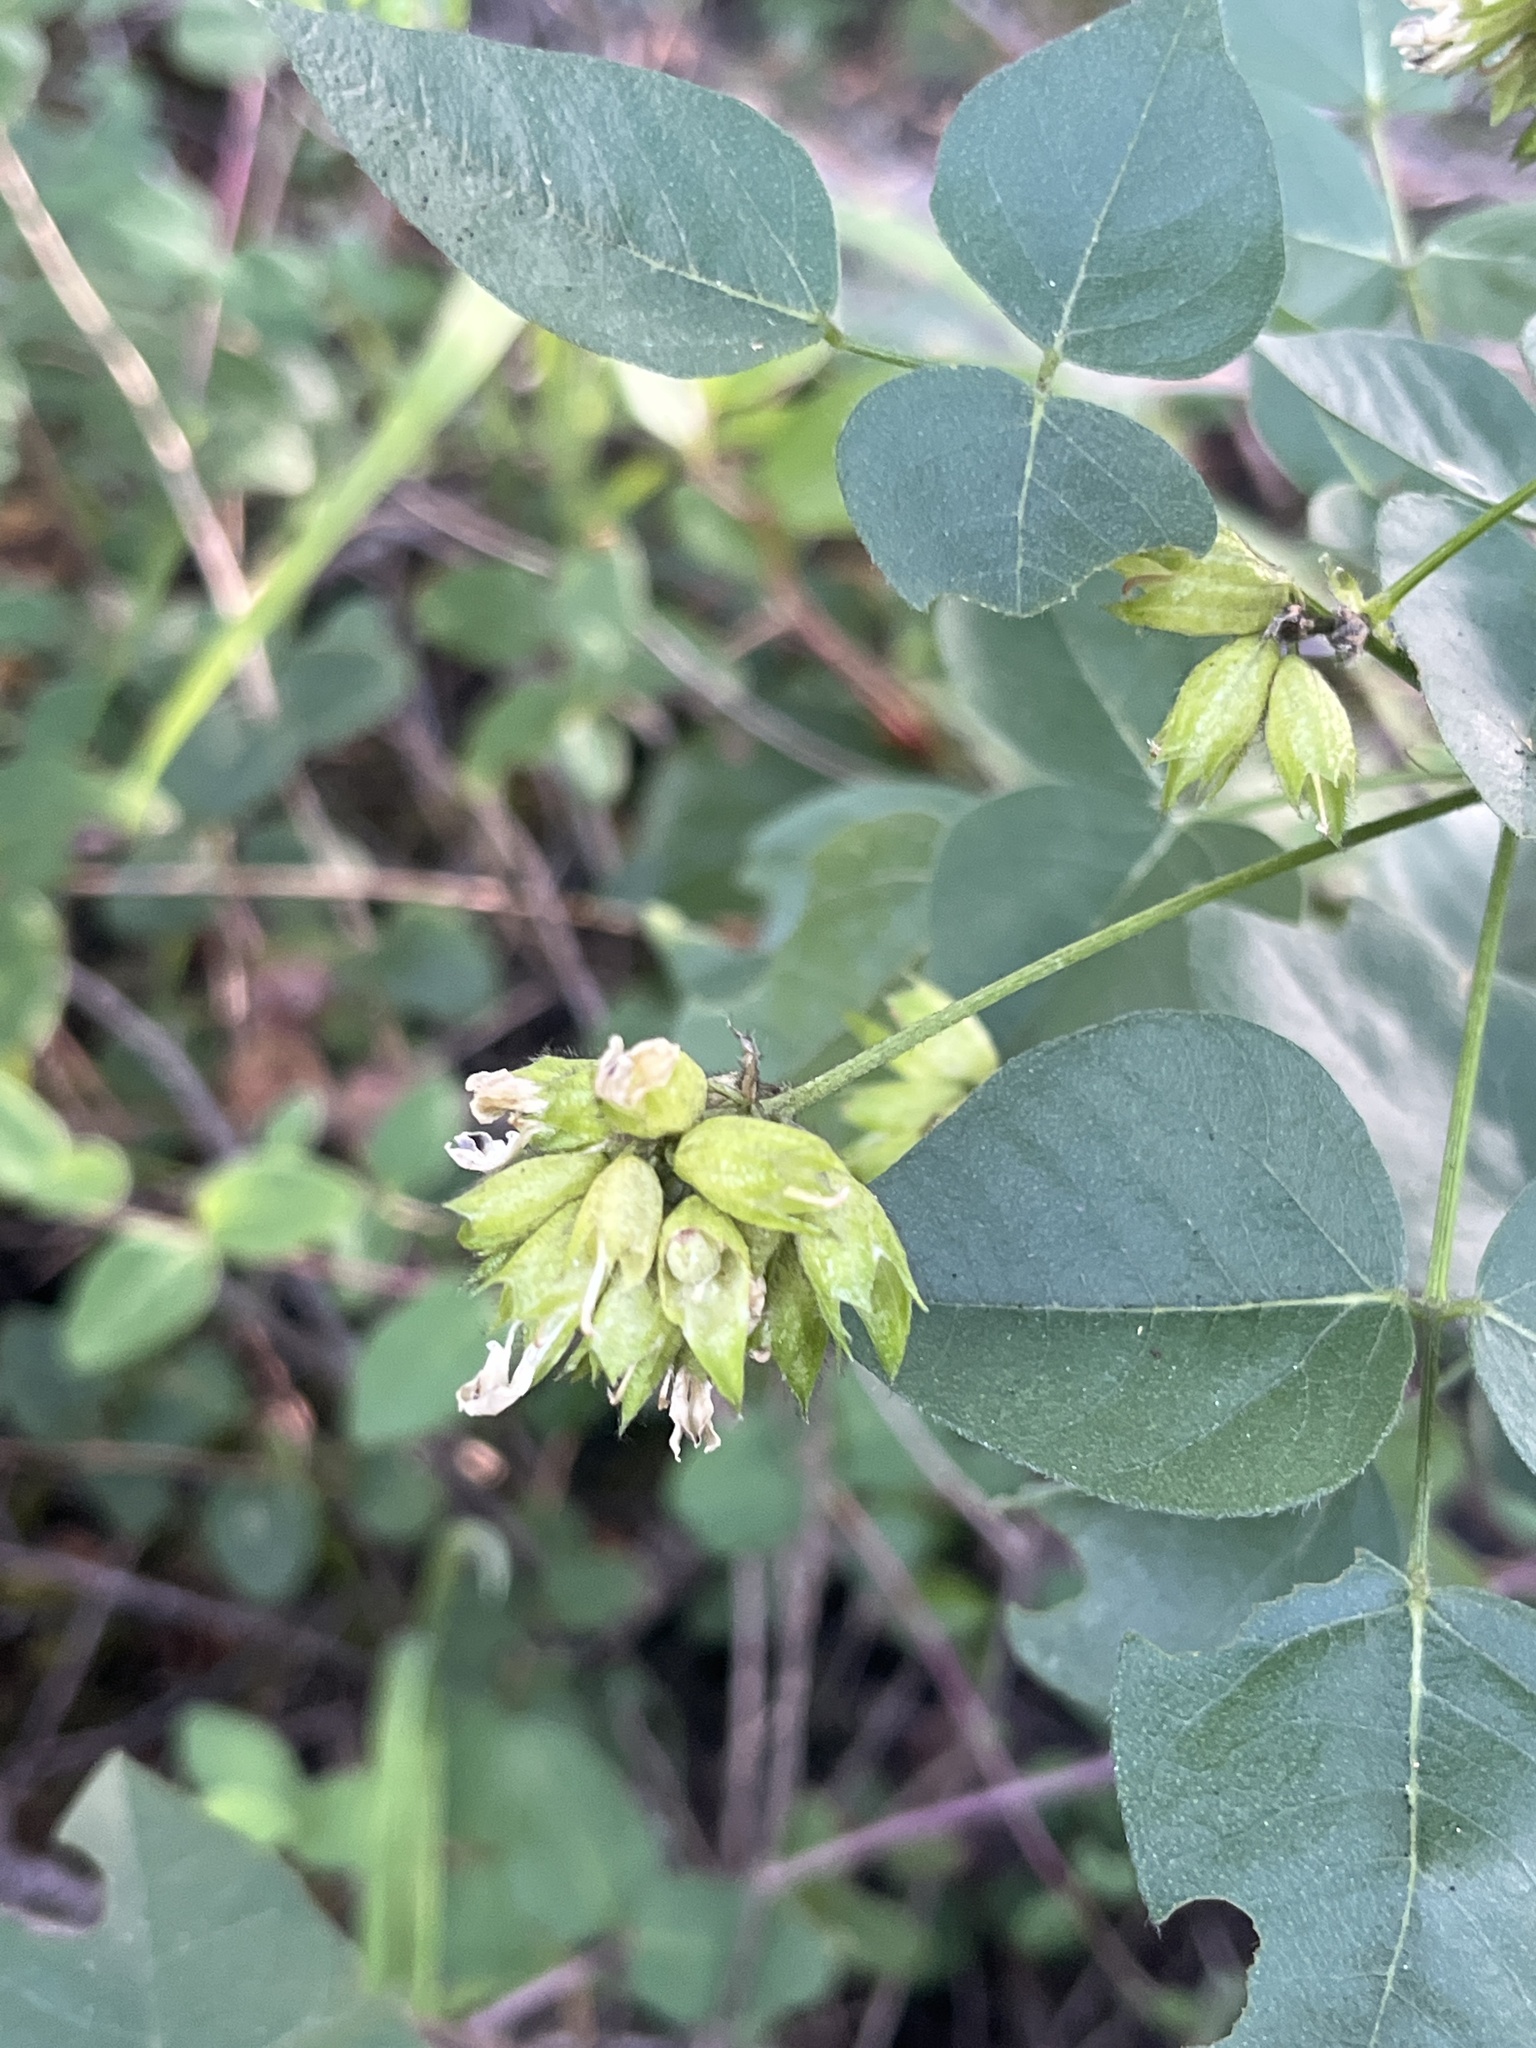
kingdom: Plantae
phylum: Tracheophyta
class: Magnoliopsida
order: Fabales
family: Fabaceae
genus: Rupertia
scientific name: Rupertia physodes
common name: California-tea
